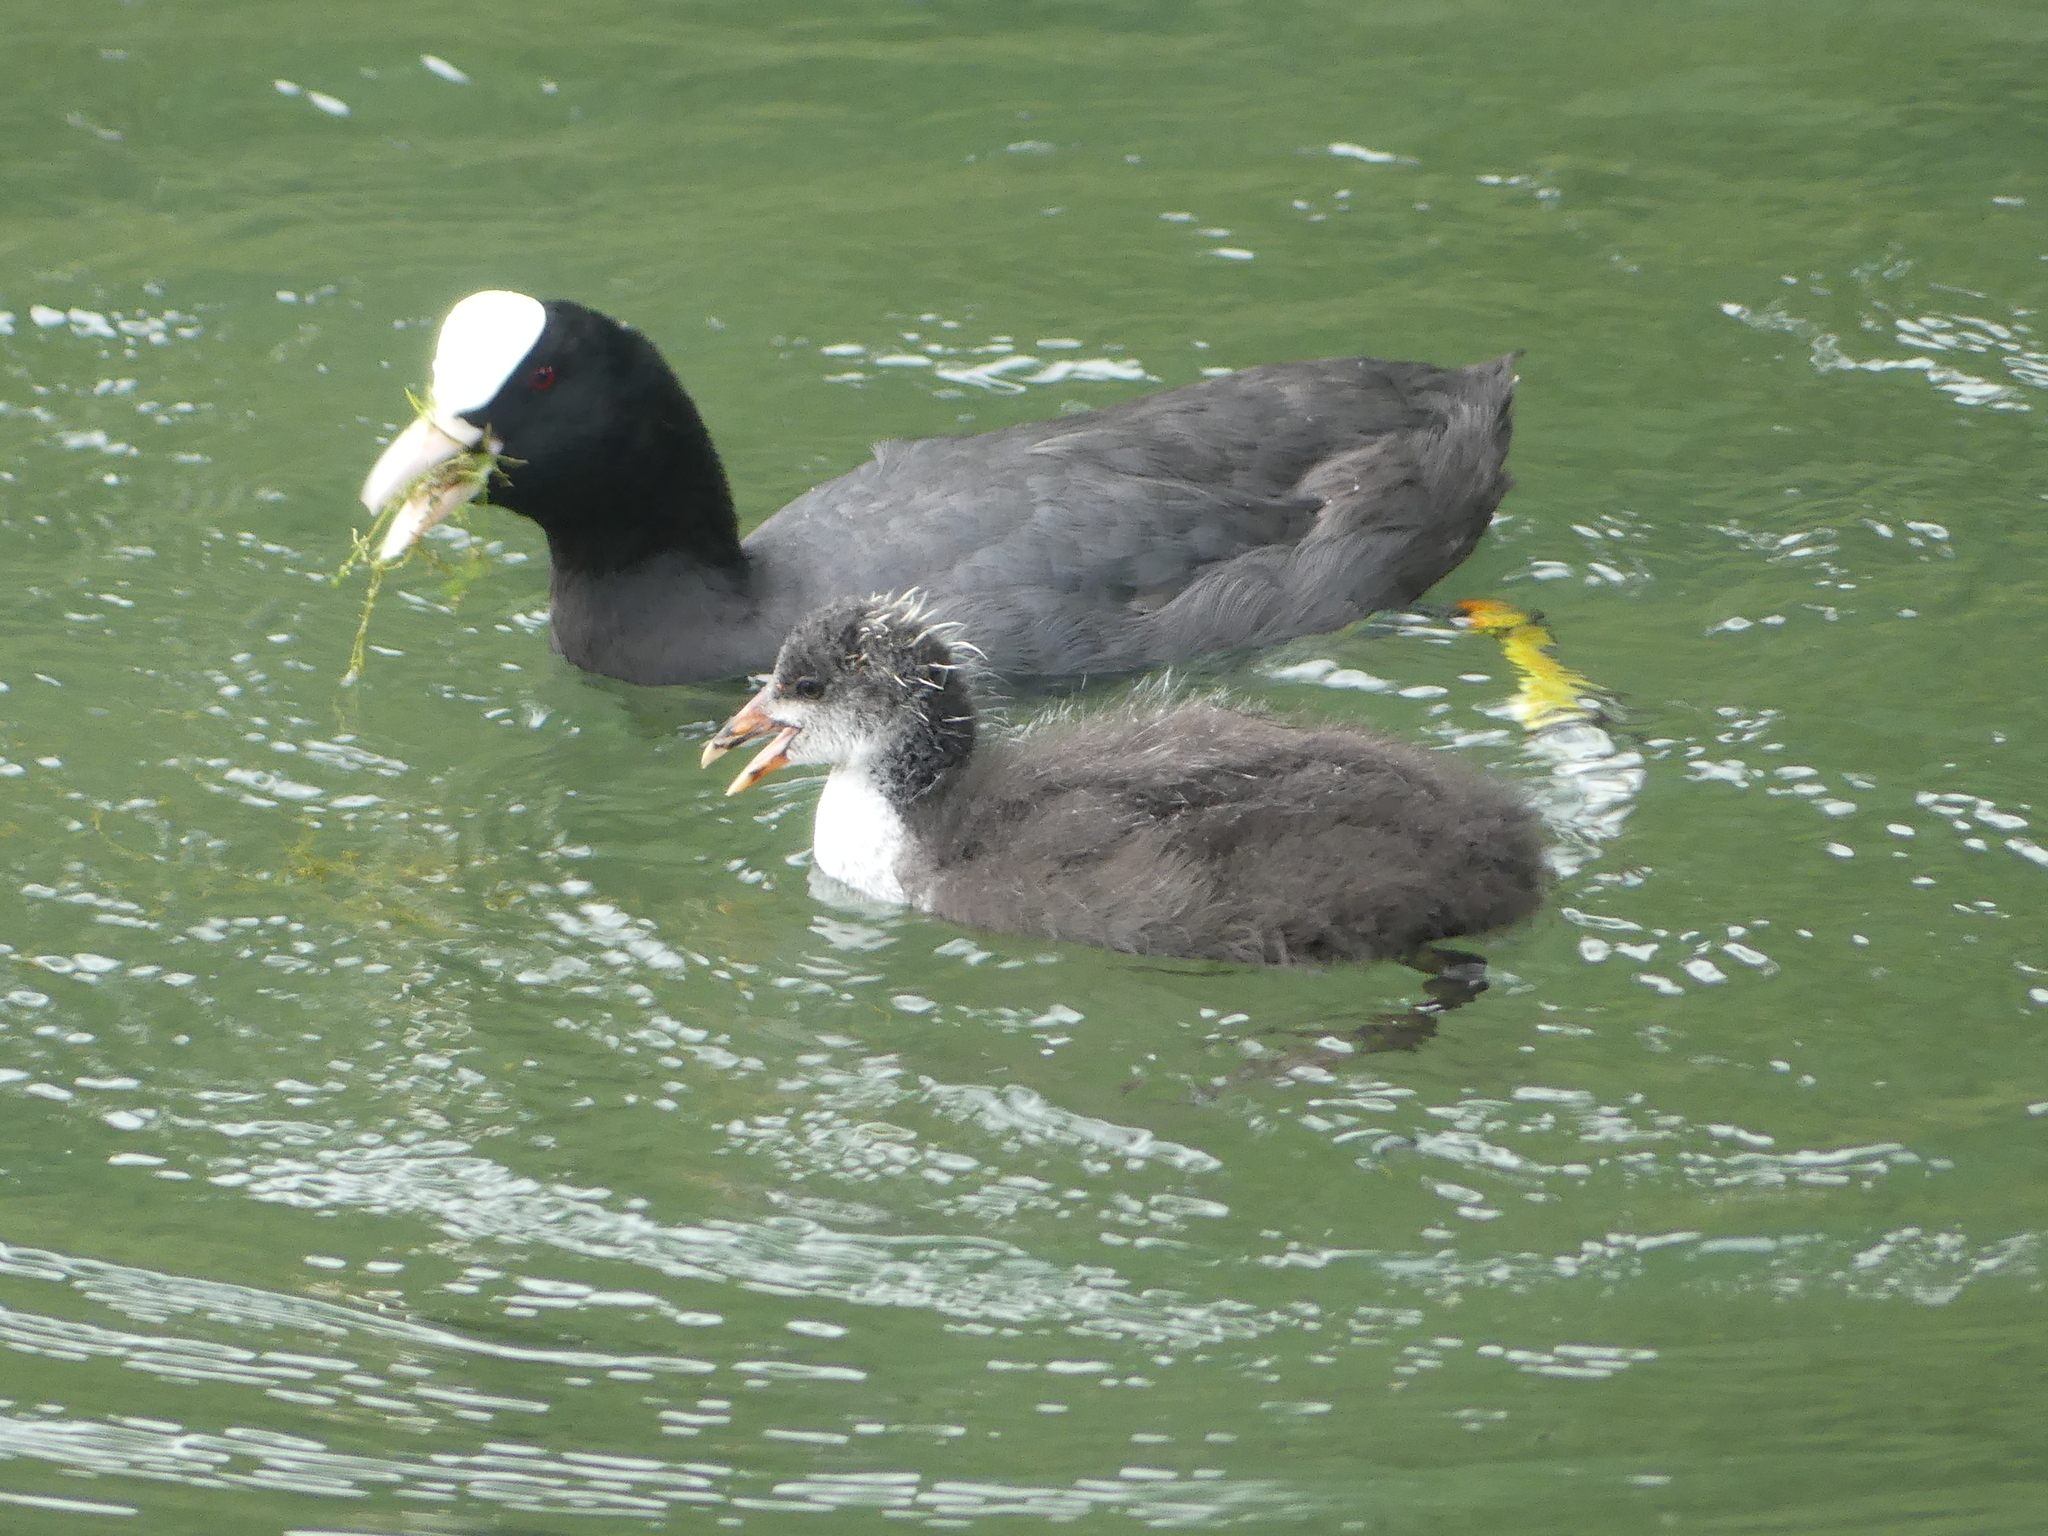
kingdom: Animalia
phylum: Chordata
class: Aves
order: Gruiformes
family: Rallidae
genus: Fulica
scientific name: Fulica atra
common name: Eurasian coot
